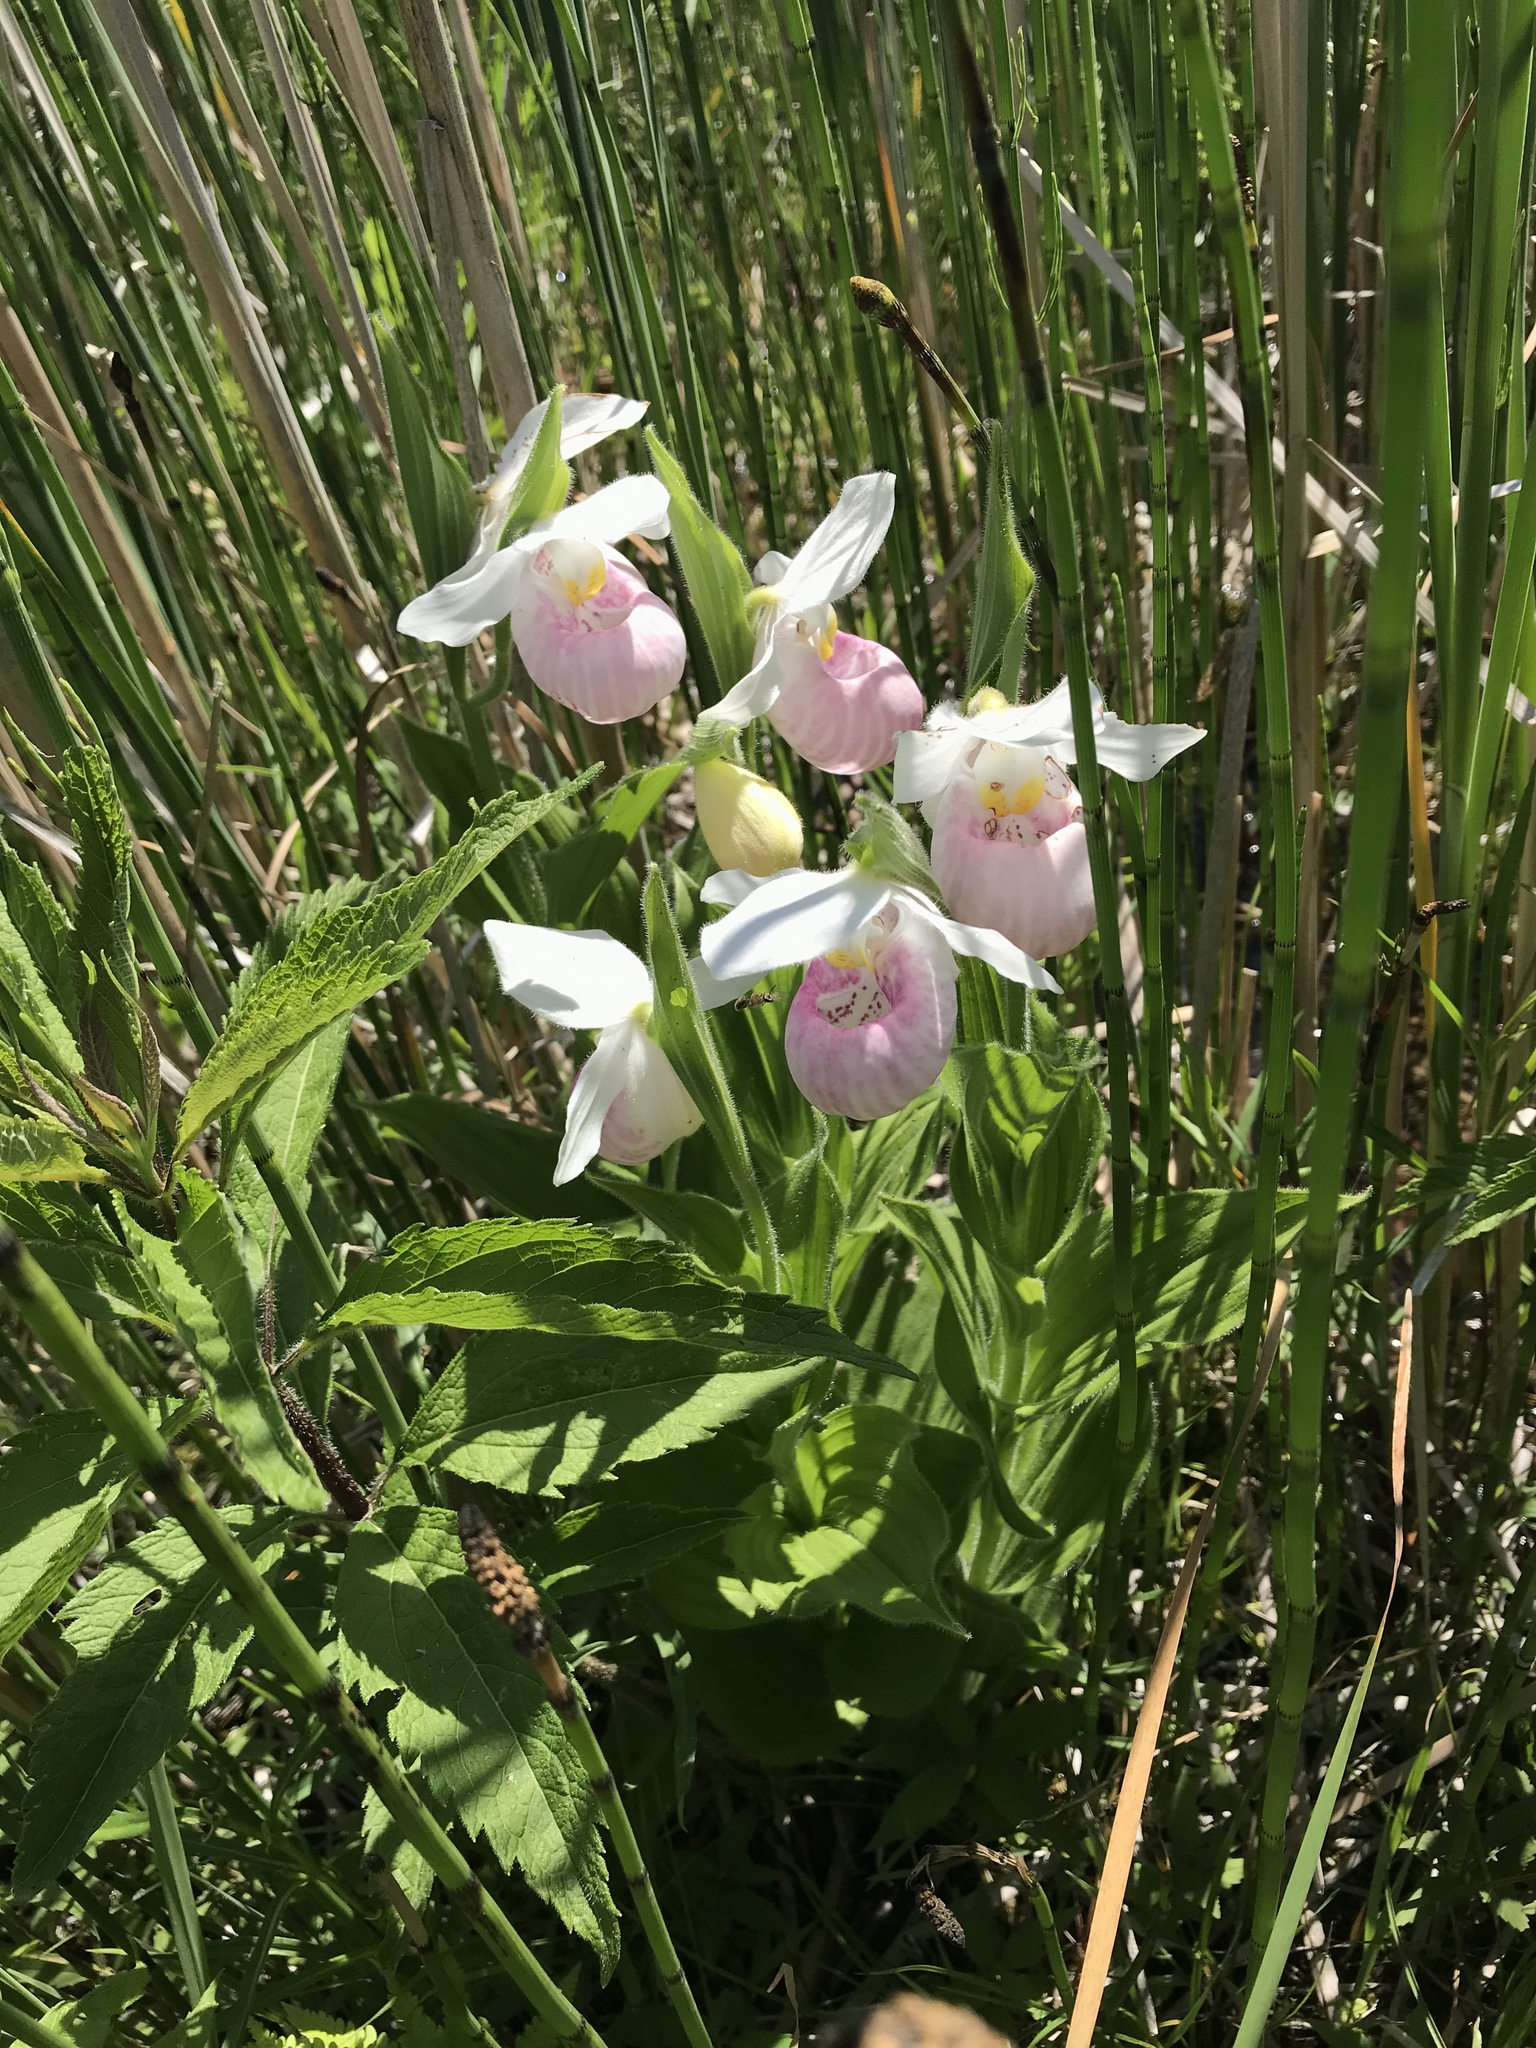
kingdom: Plantae
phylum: Tracheophyta
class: Liliopsida
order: Asparagales
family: Orchidaceae
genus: Cypripedium
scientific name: Cypripedium reginae
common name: Queen lady's-slipper
